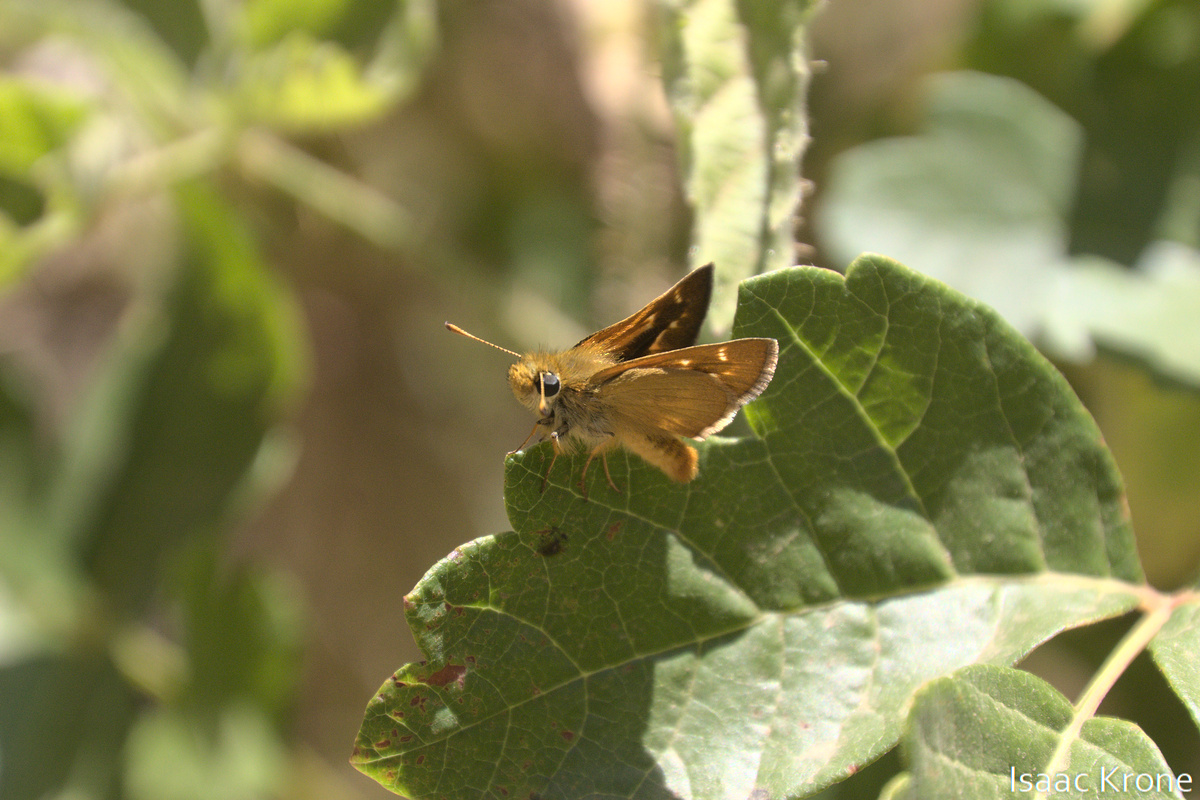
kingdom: Animalia
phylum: Arthropoda
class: Insecta
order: Lepidoptera
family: Hesperiidae
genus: Ochlodes
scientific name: Ochlodes agricola
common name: Rural skipper
